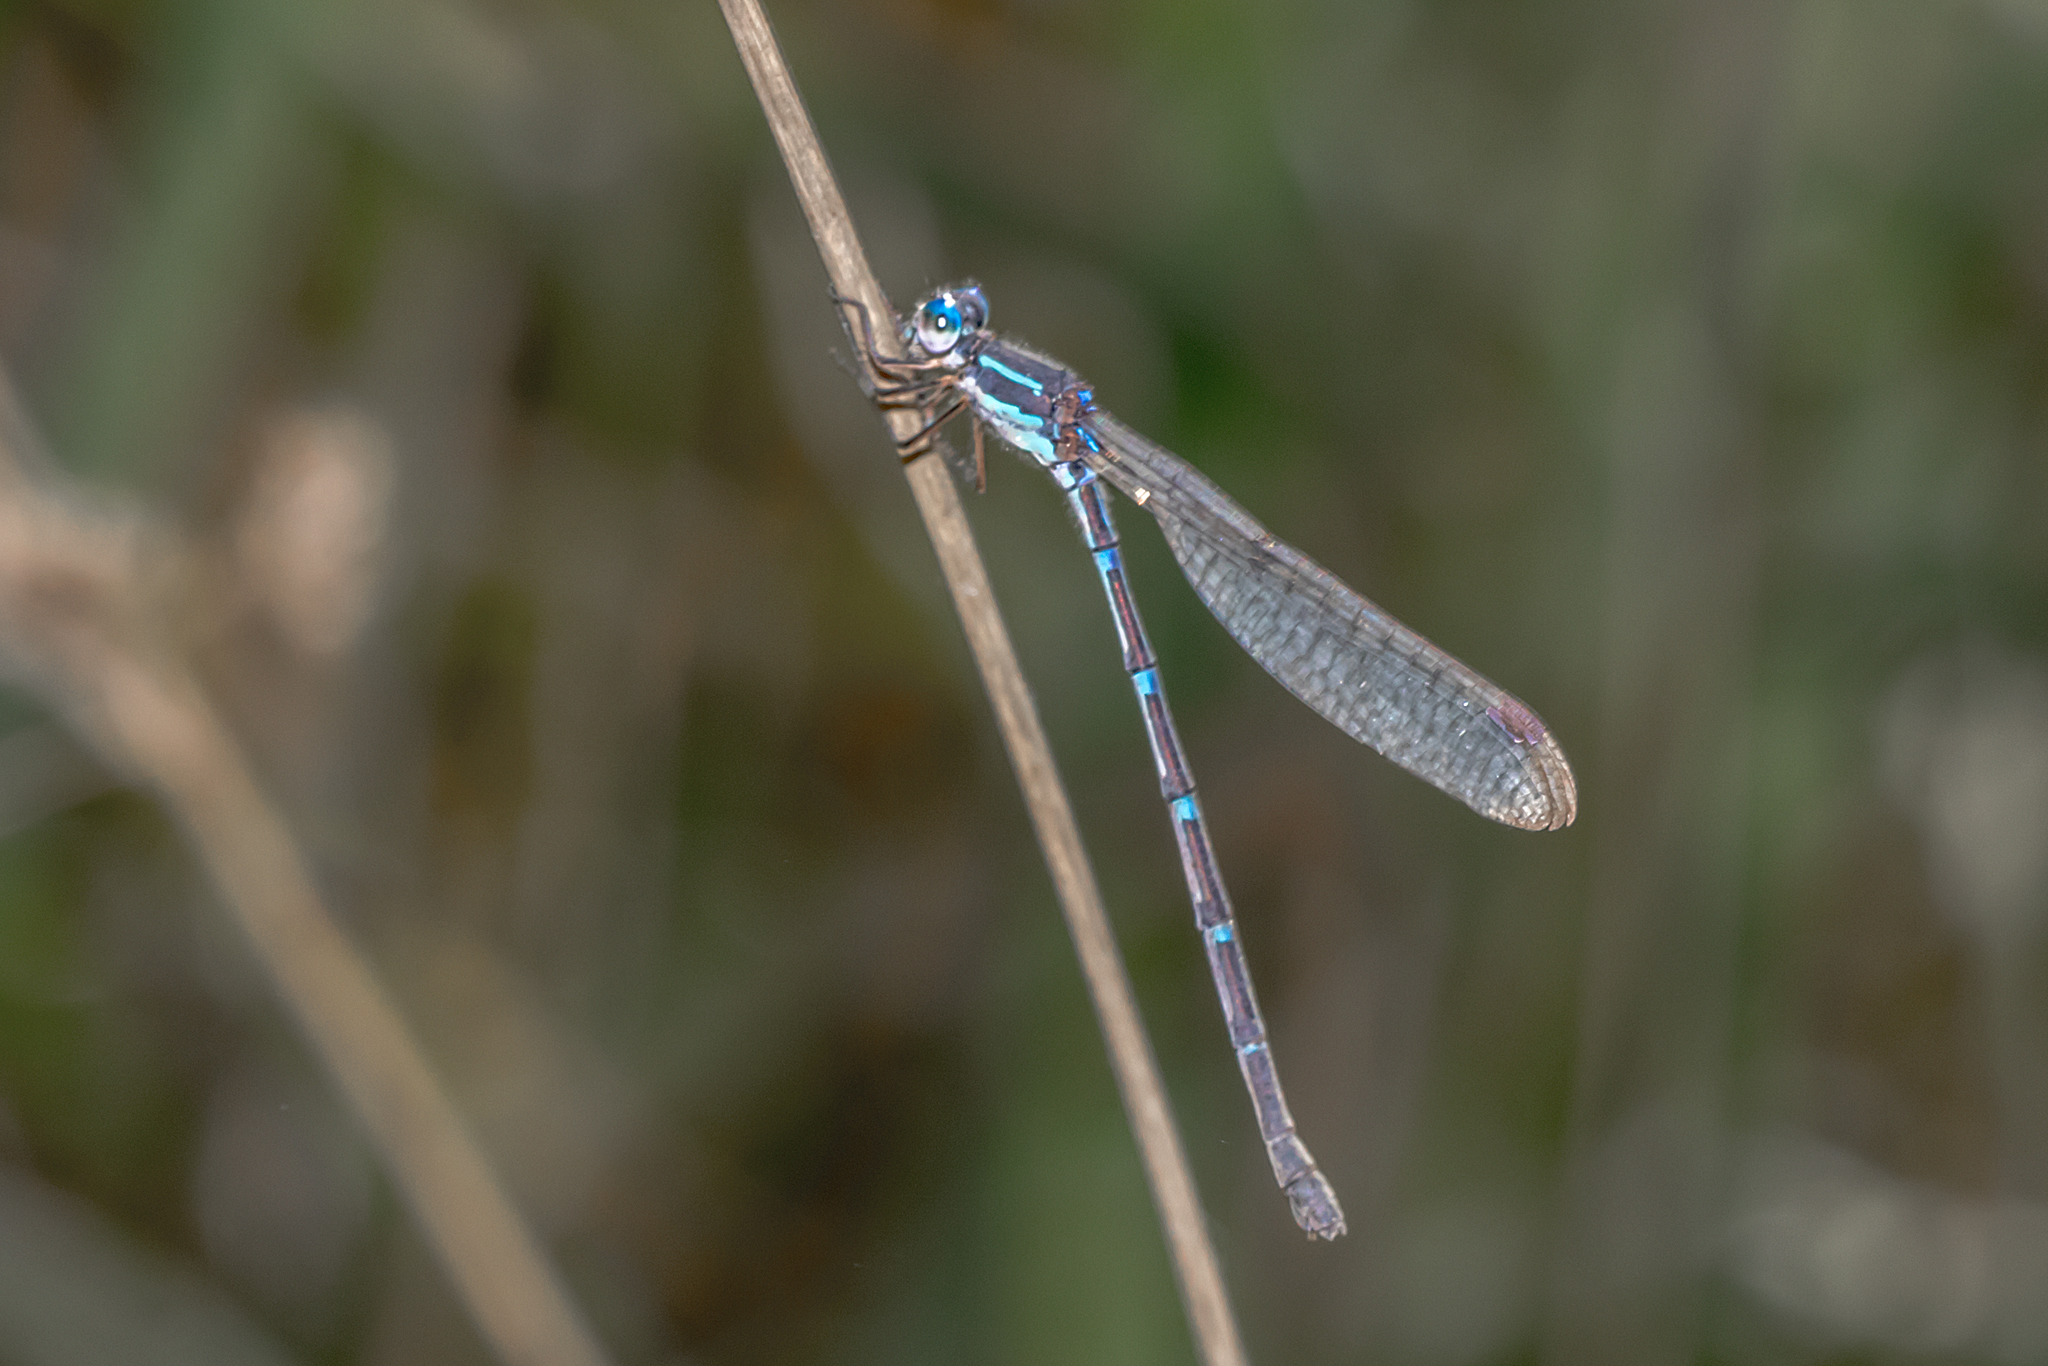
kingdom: Animalia
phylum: Arthropoda
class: Insecta
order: Odonata
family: Lestidae
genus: Austrolestes
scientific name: Austrolestes leda
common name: Wandering ringtail
